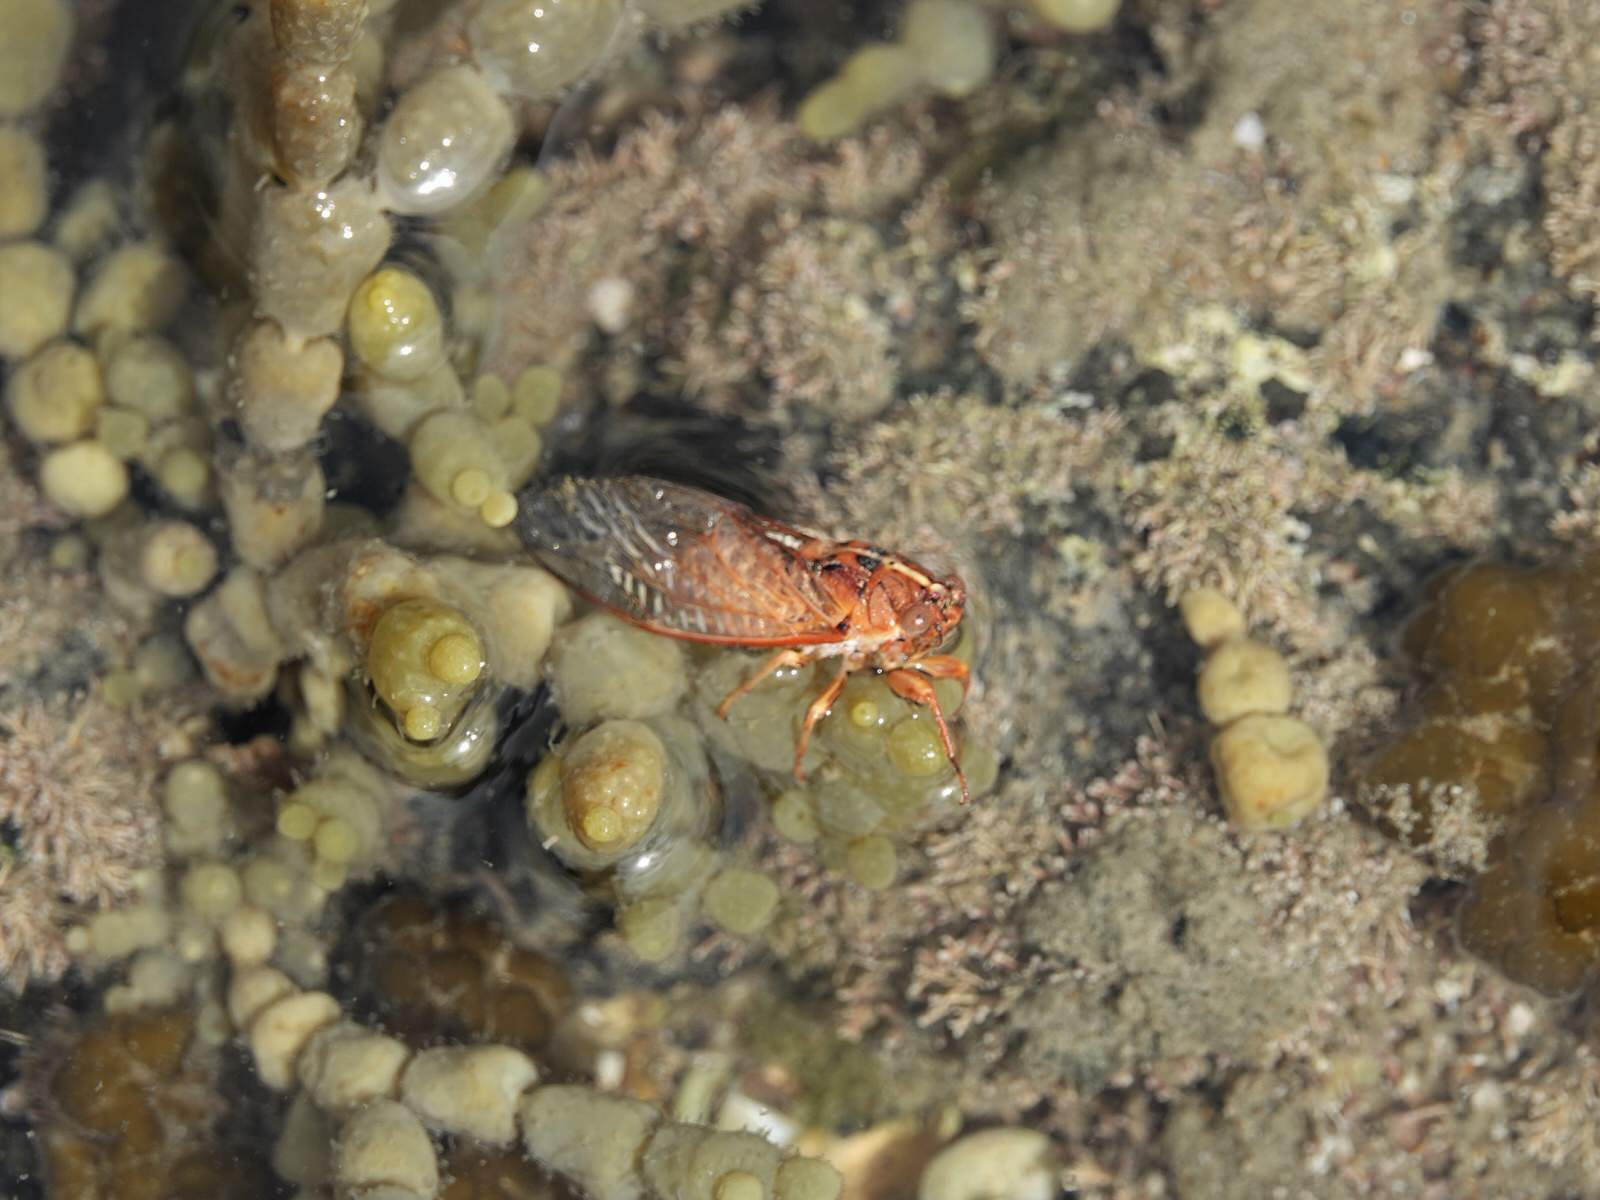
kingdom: Animalia
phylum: Arthropoda
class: Insecta
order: Hemiptera
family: Cicadidae
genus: Rhodopsalta
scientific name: Rhodopsalta leptomera
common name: Sand dune redtail cicada
